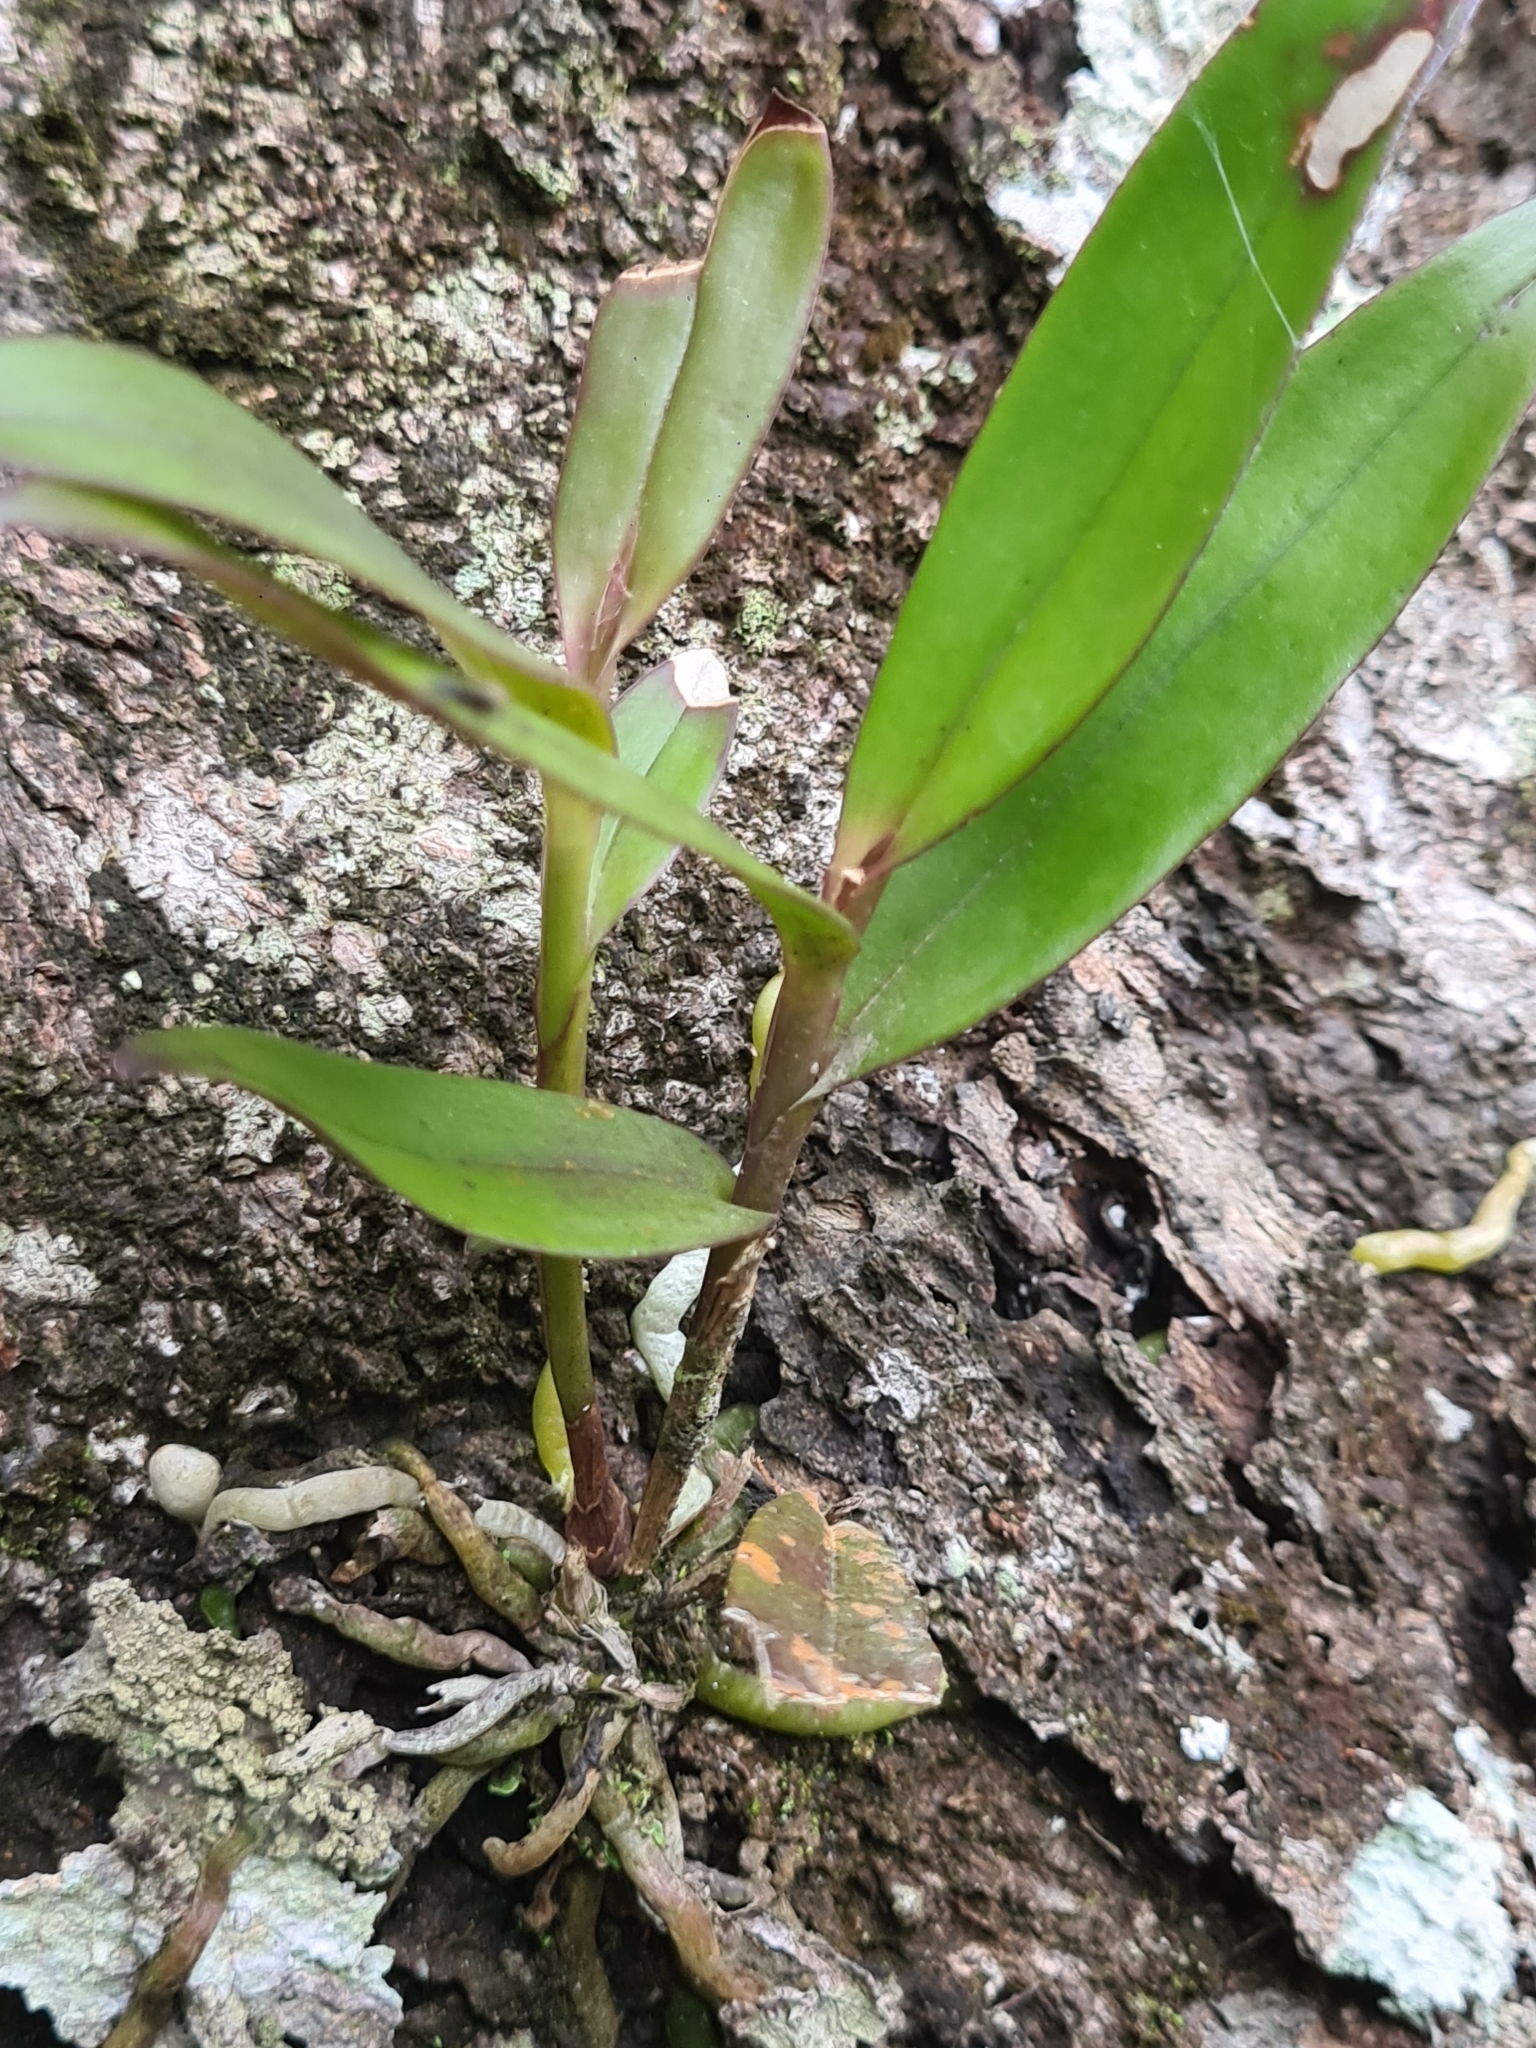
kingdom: Plantae
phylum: Tracheophyta
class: Liliopsida
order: Asparagales
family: Orchidaceae
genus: Epidendrum
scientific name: Epidendrum nocturnum
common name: Night scented orchid
